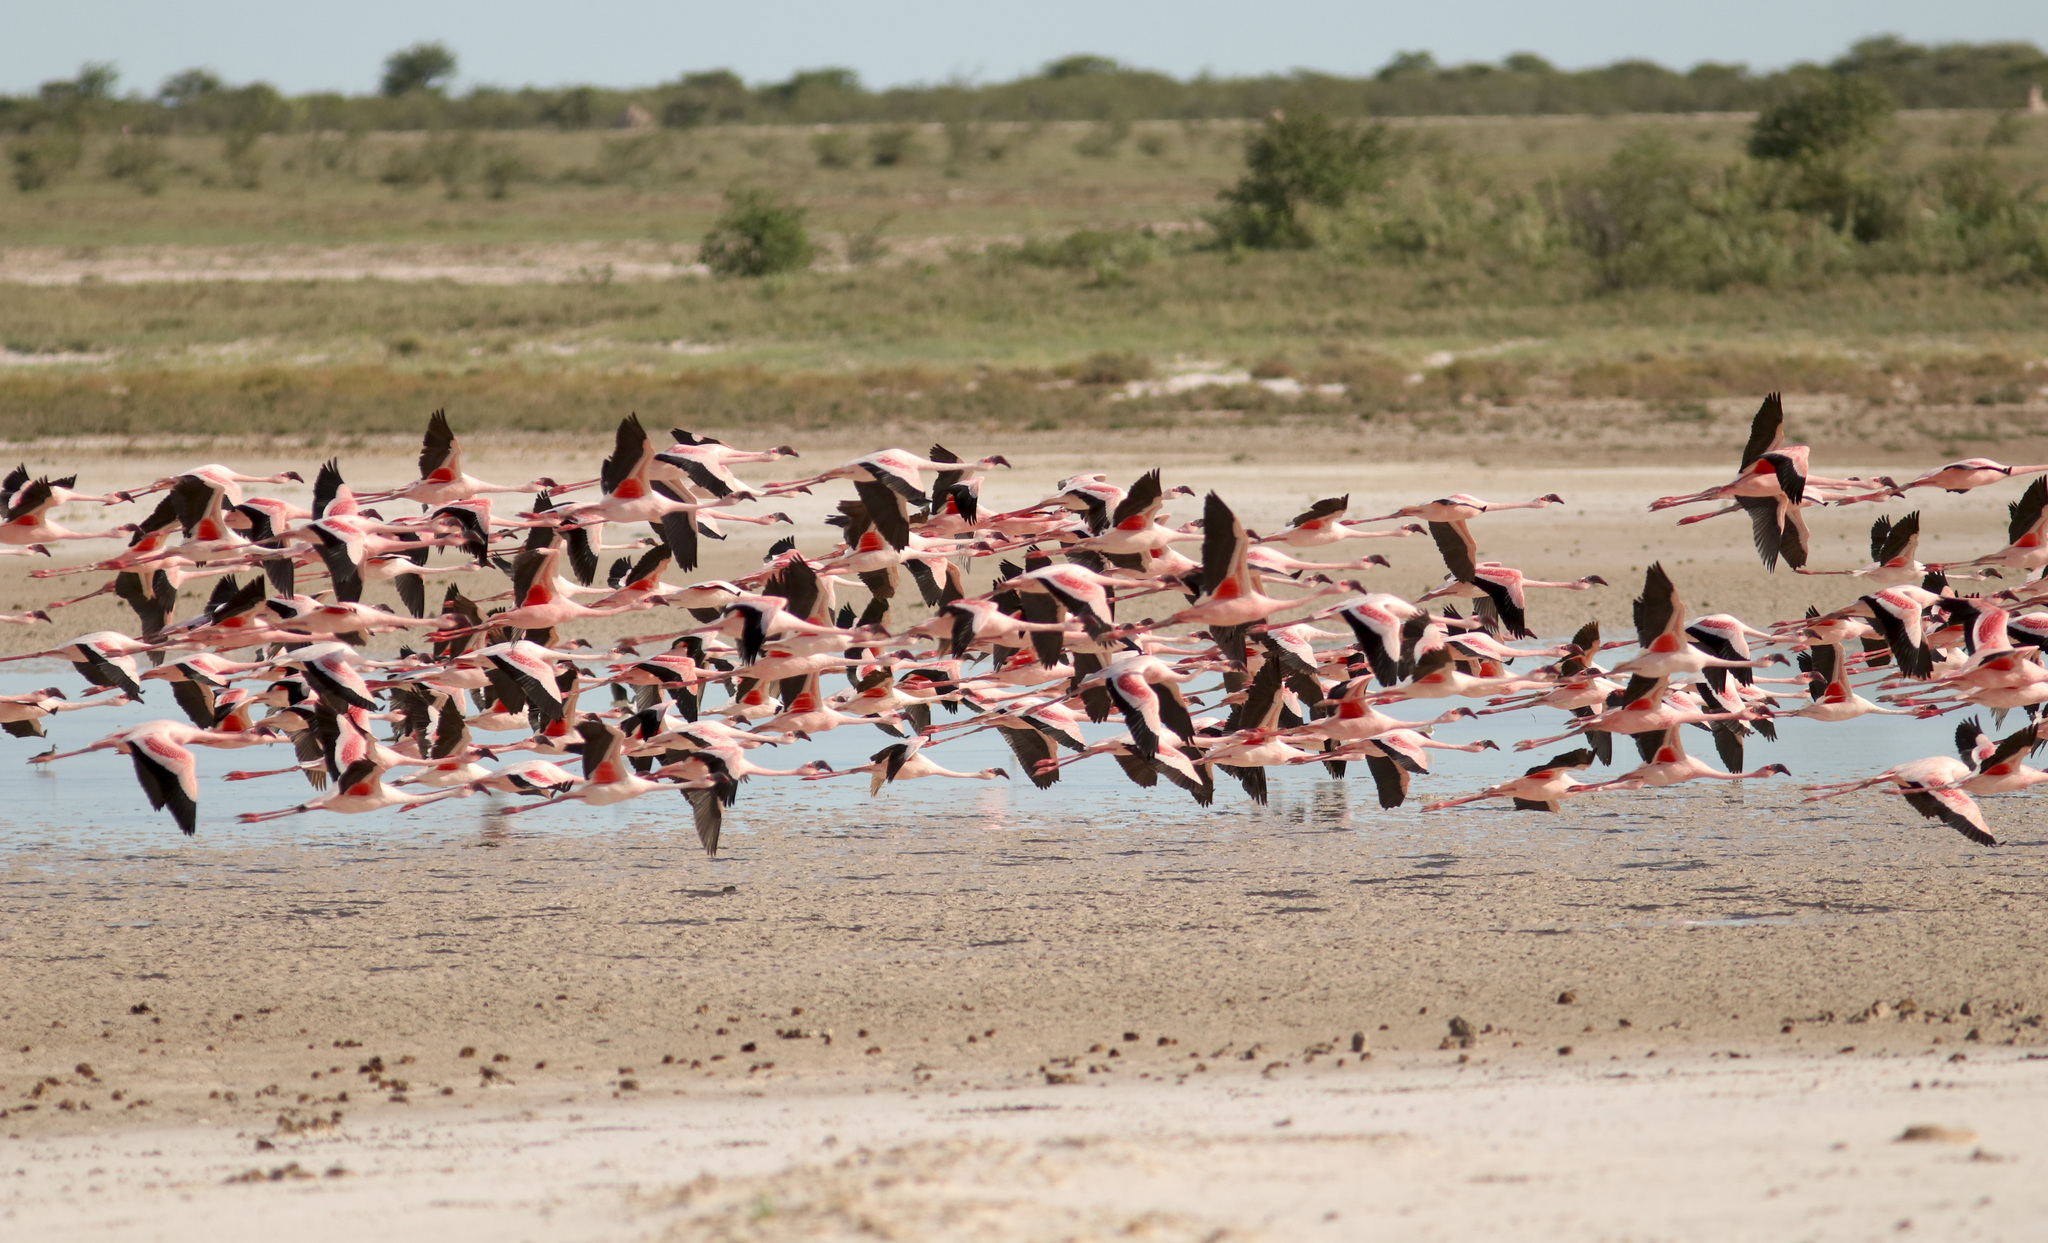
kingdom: Animalia
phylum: Chordata
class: Aves
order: Phoenicopteriformes
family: Phoenicopteridae
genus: Phoeniconaias
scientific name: Phoeniconaias minor
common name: Lesser flamingo
